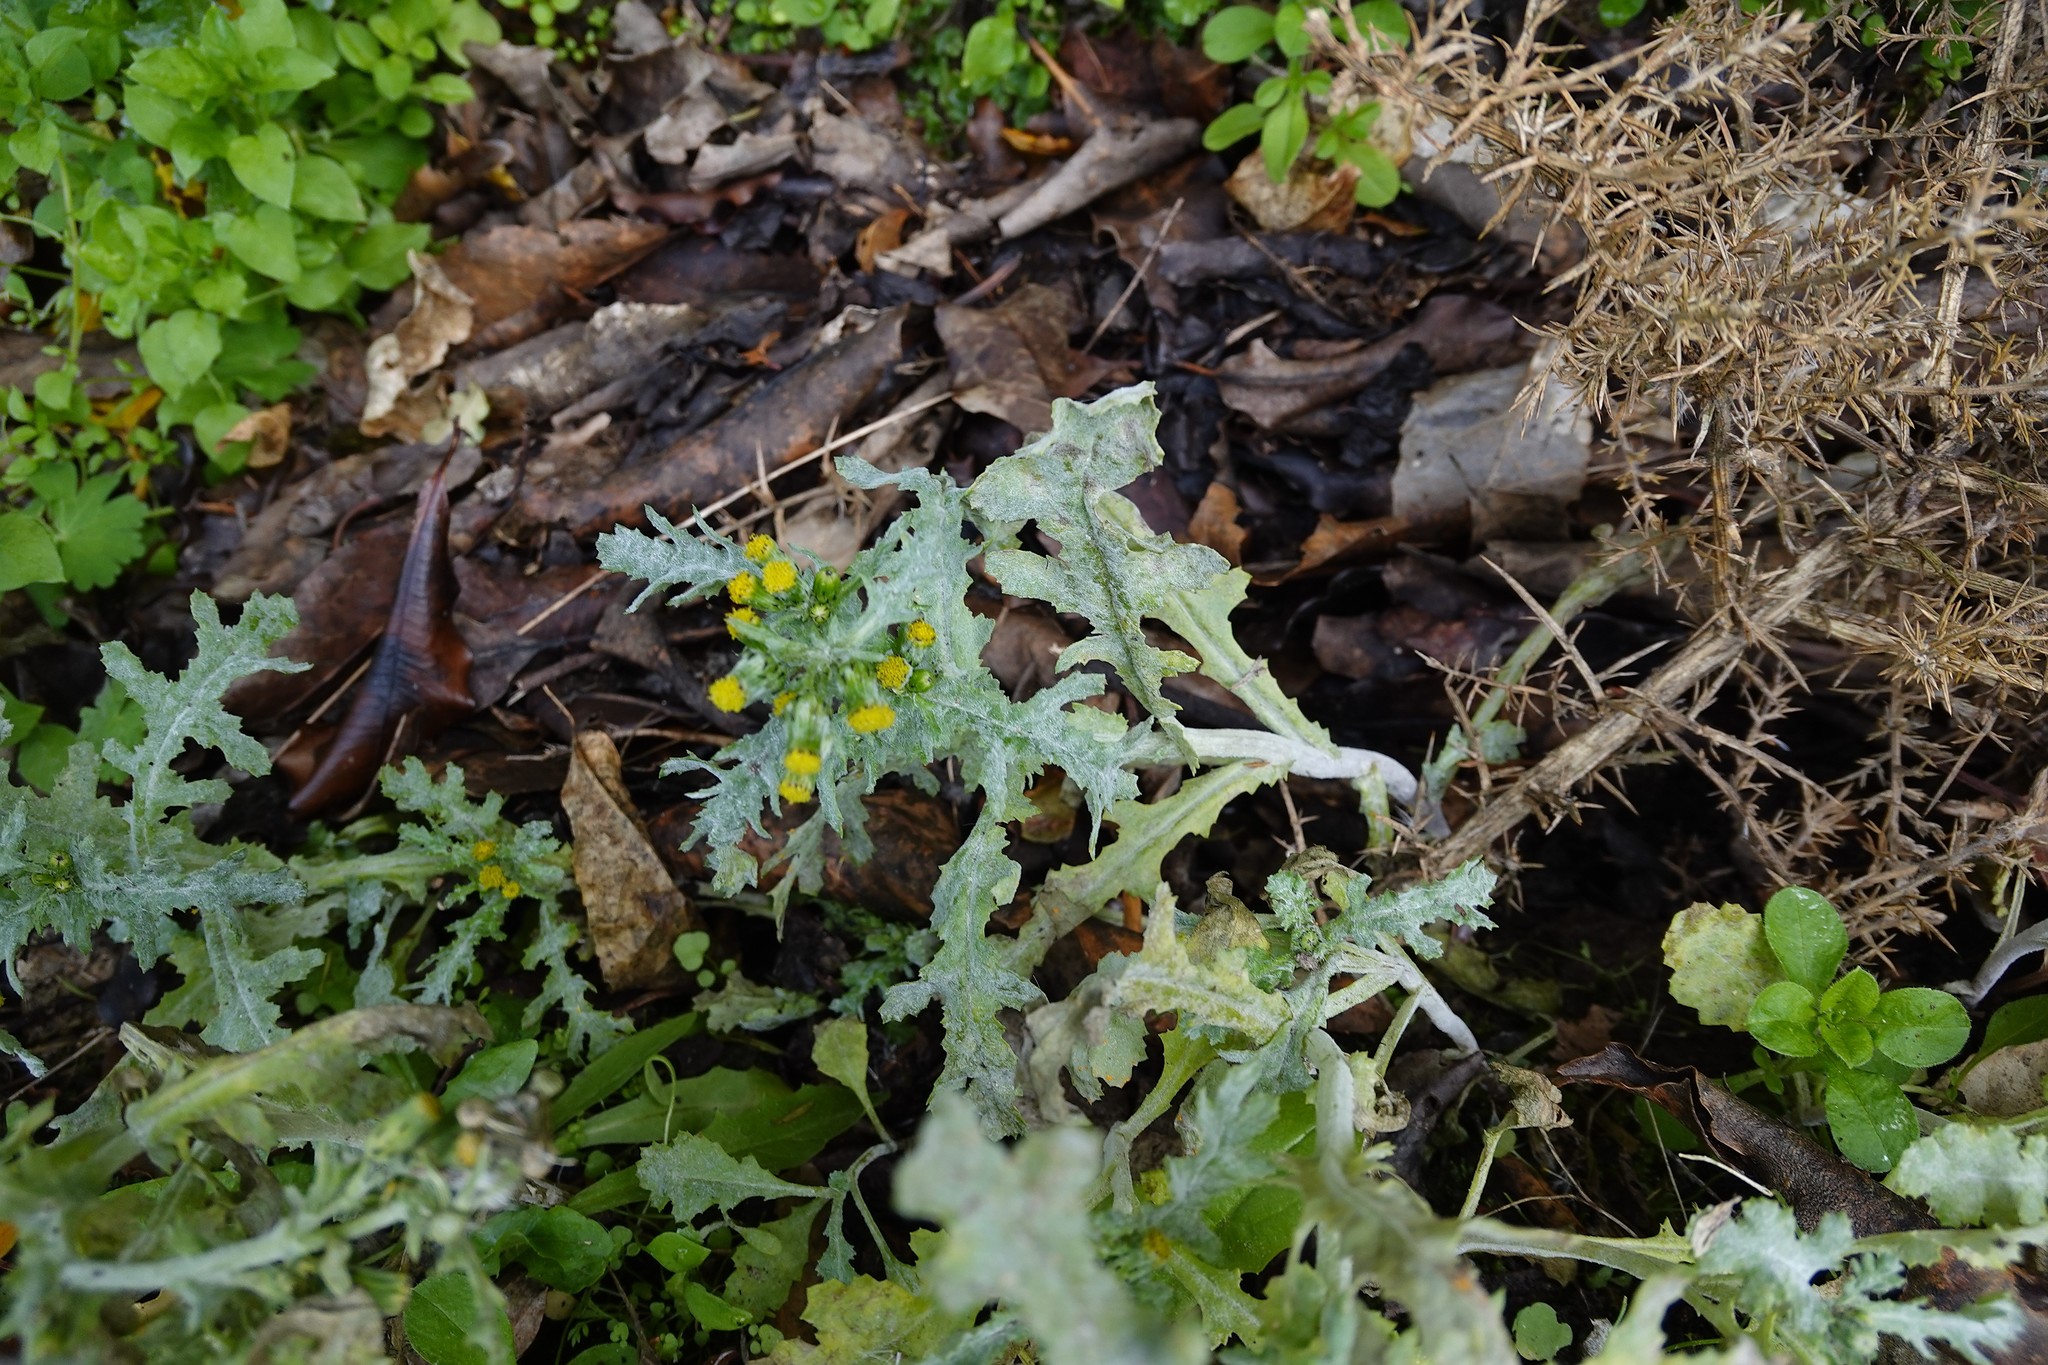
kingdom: Plantae
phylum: Tracheophyta
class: Magnoliopsida
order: Asterales
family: Asteraceae
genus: Senecio
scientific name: Senecio vulgaris
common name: Old-man-in-the-spring
